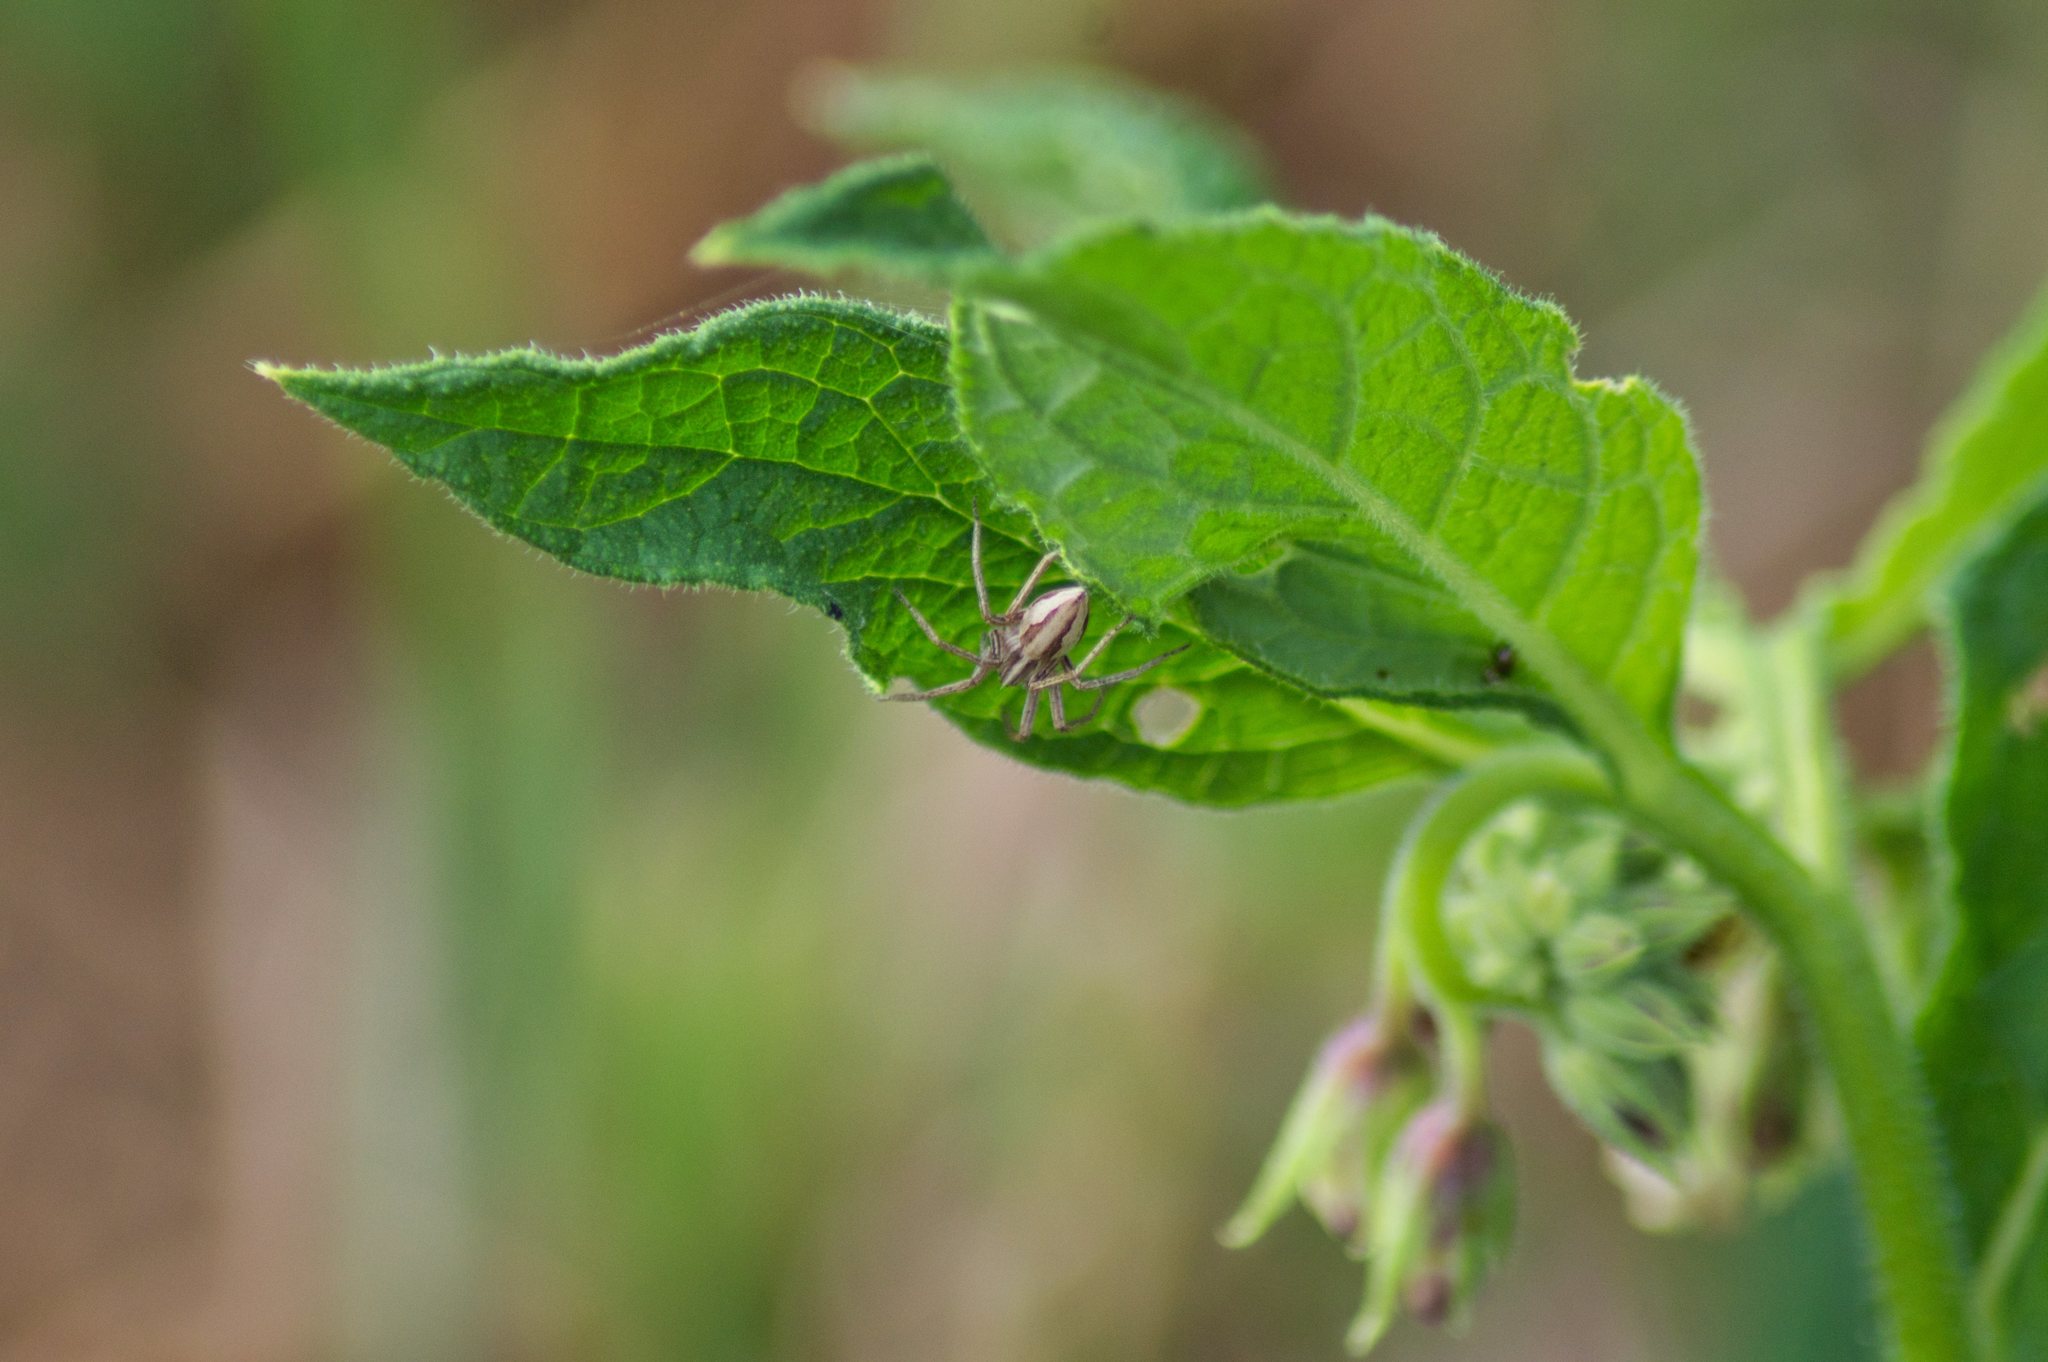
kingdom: Animalia
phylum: Arthropoda
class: Arachnida
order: Araneae
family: Pisauridae
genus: Pisaura
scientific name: Pisaura mirabilis
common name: Tent spider
